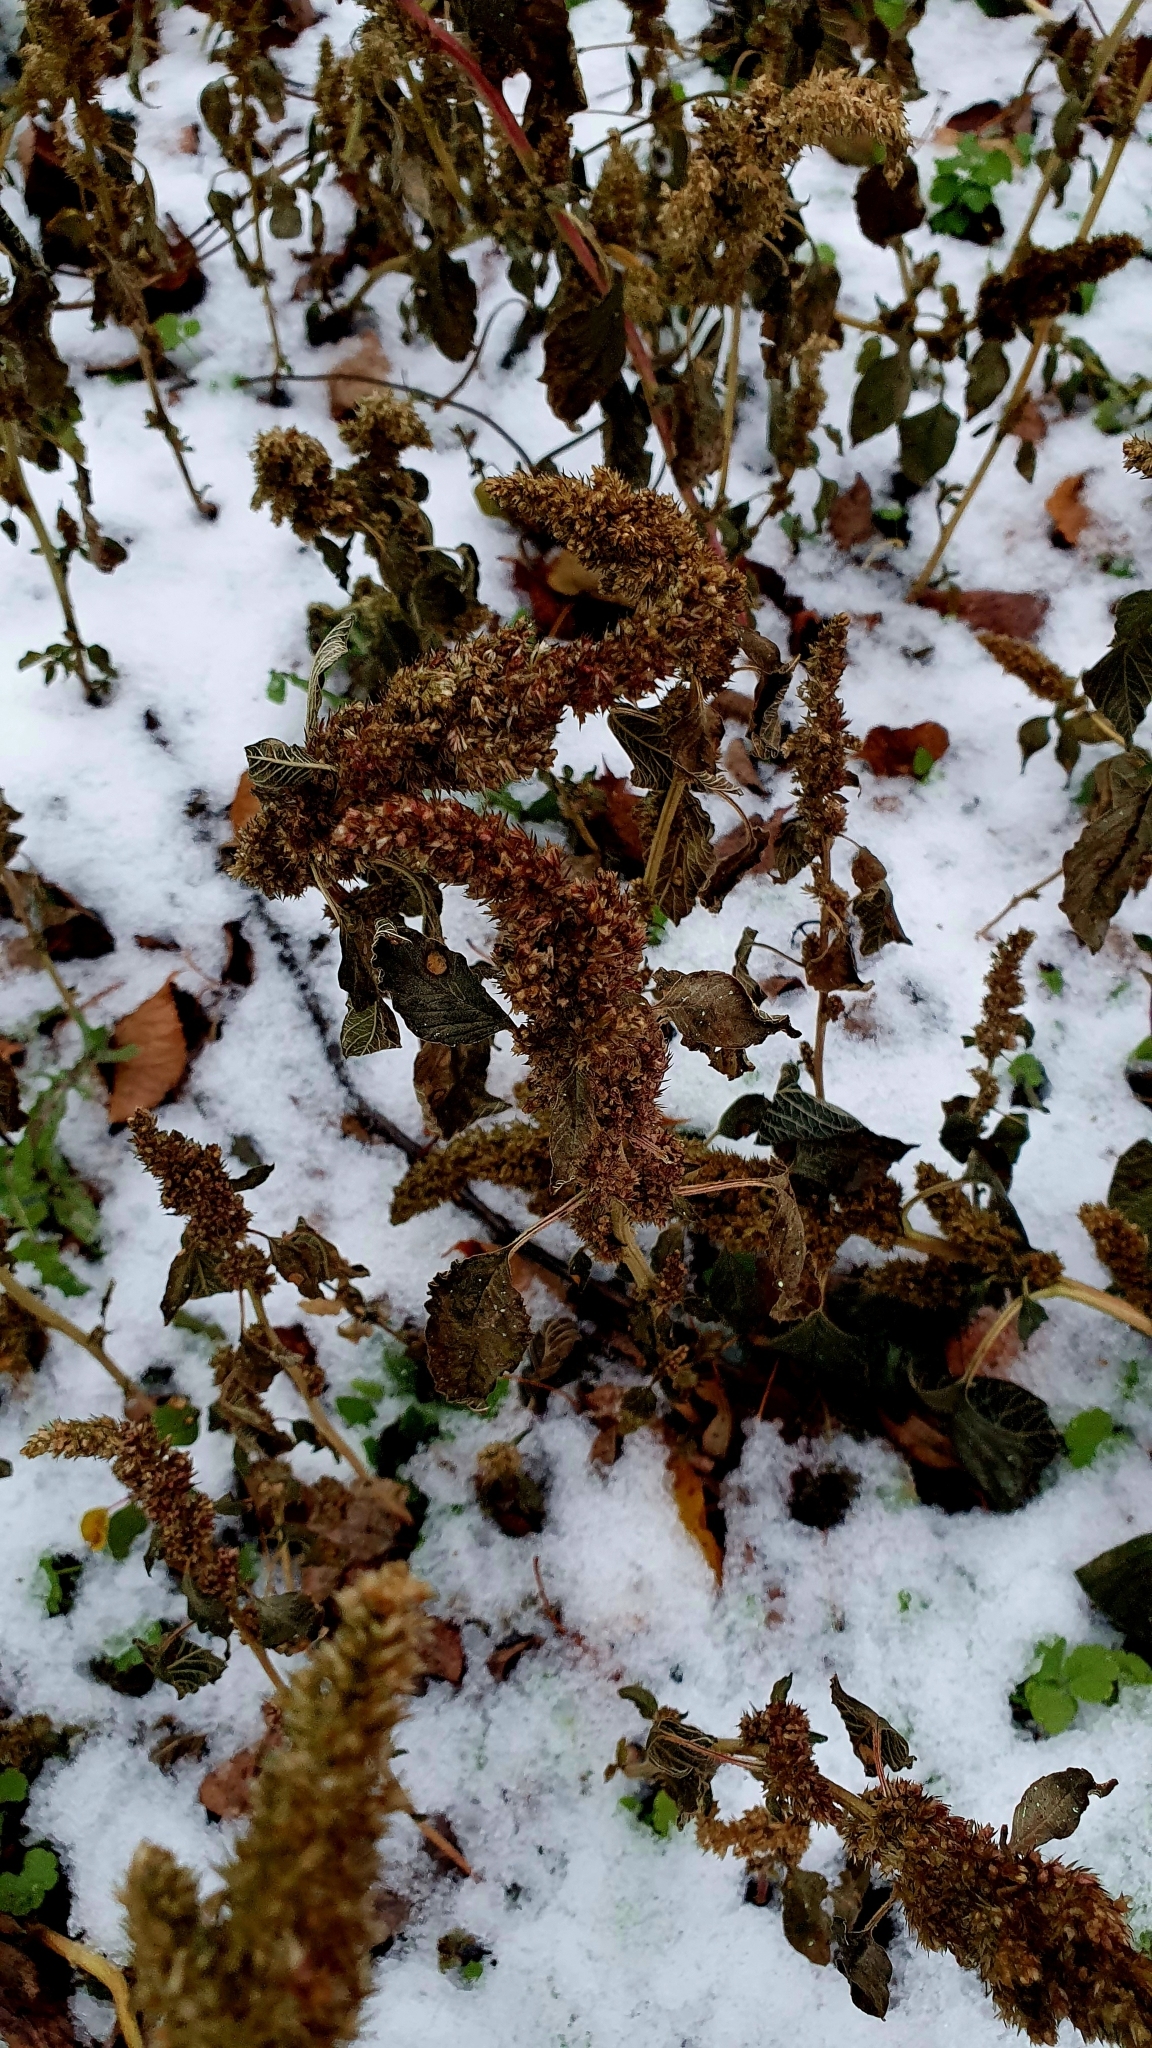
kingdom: Plantae
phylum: Tracheophyta
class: Magnoliopsida
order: Caryophyllales
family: Amaranthaceae
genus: Amaranthus
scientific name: Amaranthus retroflexus
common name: Redroot amaranth
